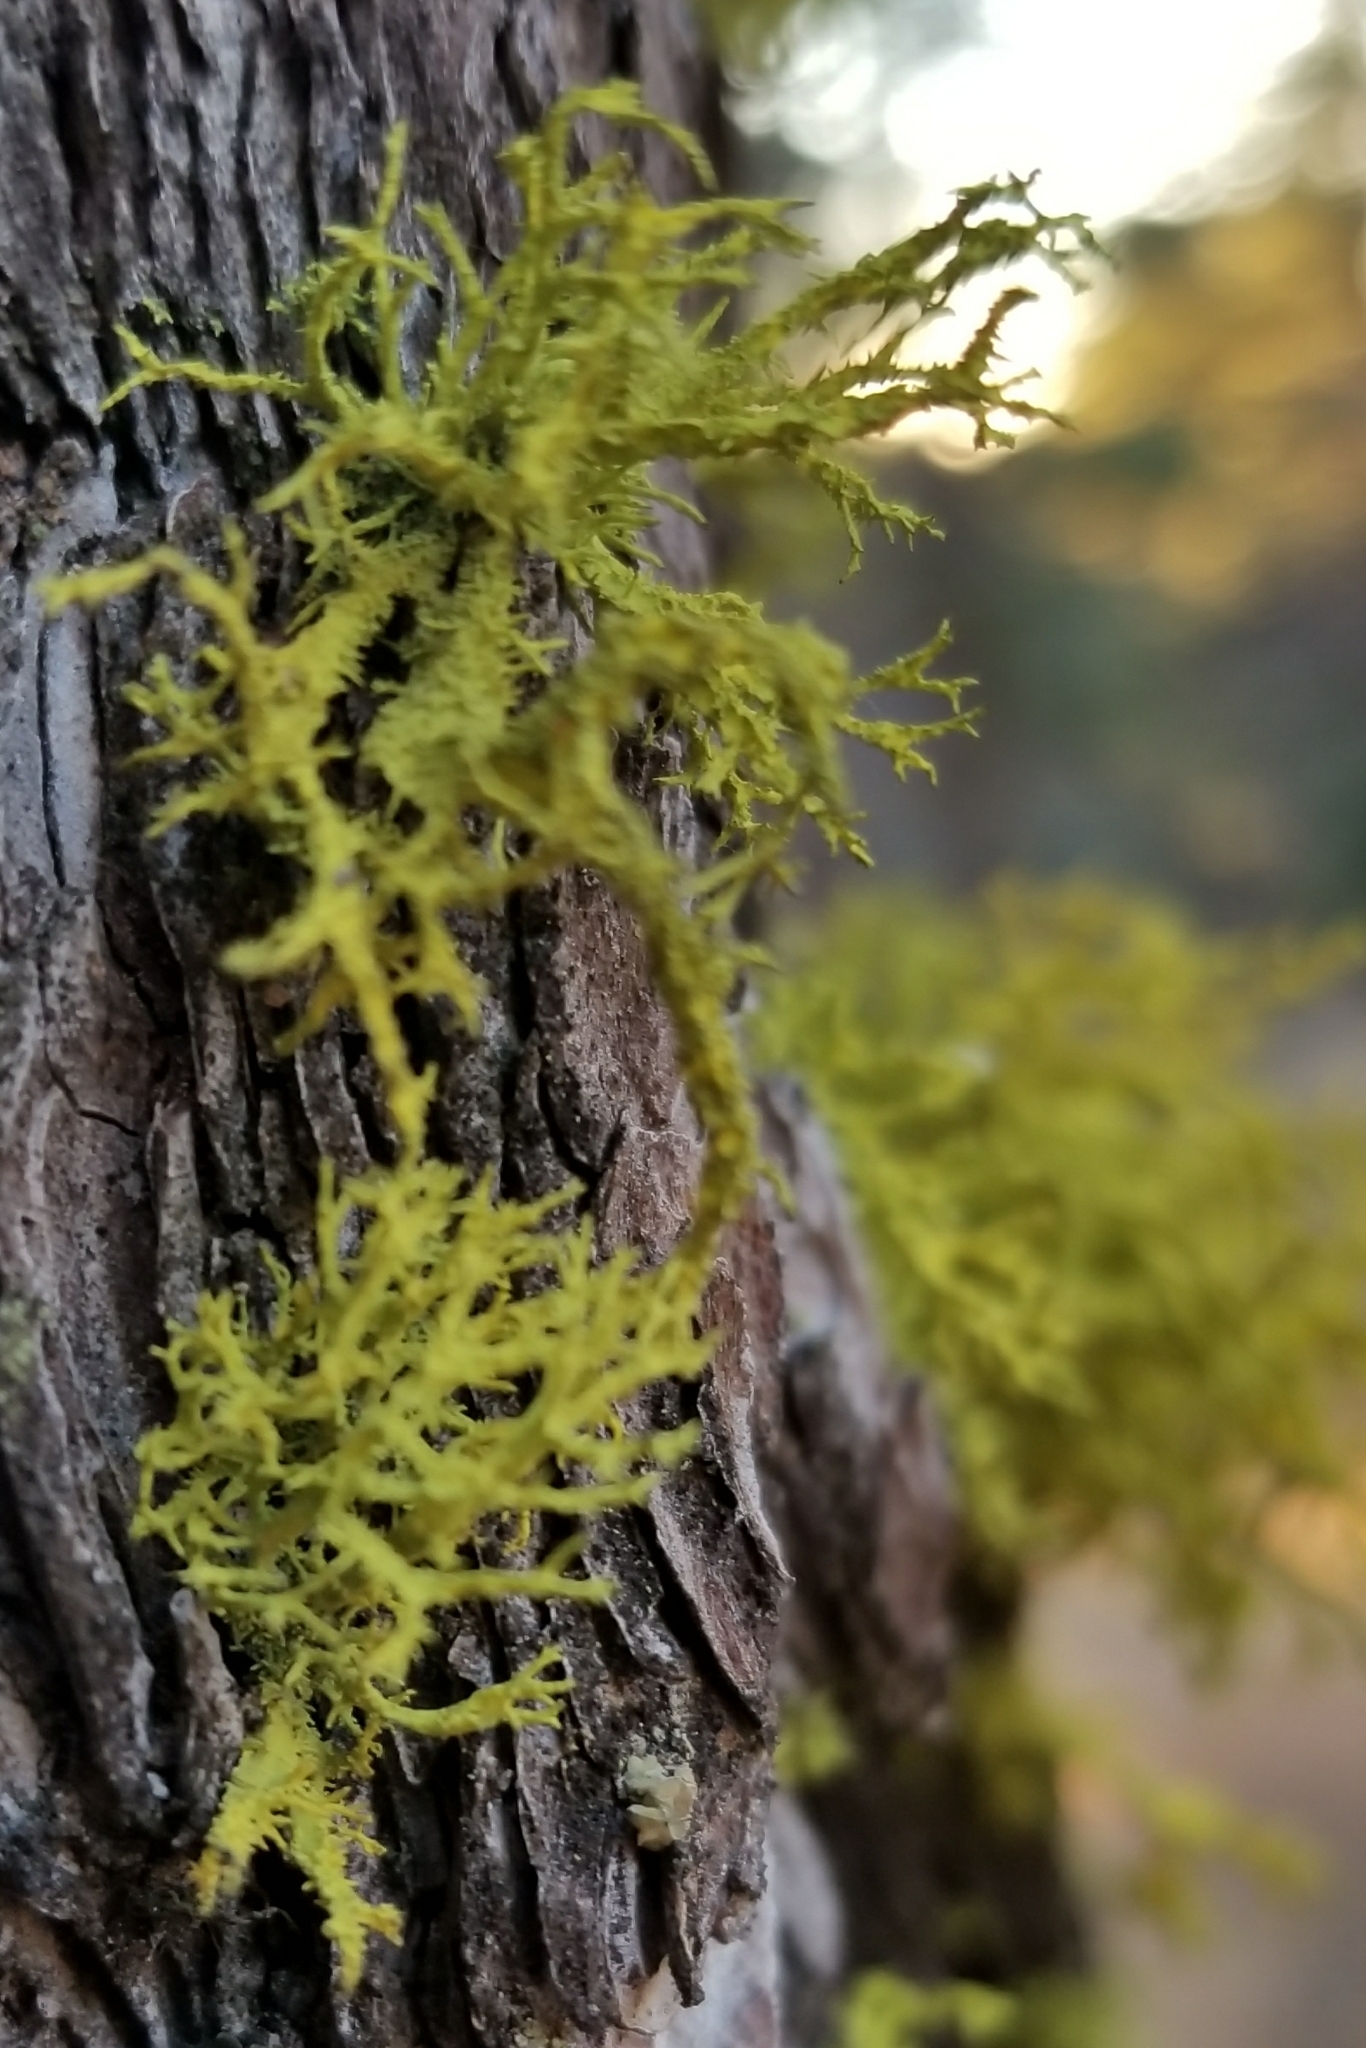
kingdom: Fungi
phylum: Ascomycota
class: Lecanoromycetes
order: Lecanorales
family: Parmeliaceae
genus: Letharia
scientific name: Letharia vulpina
